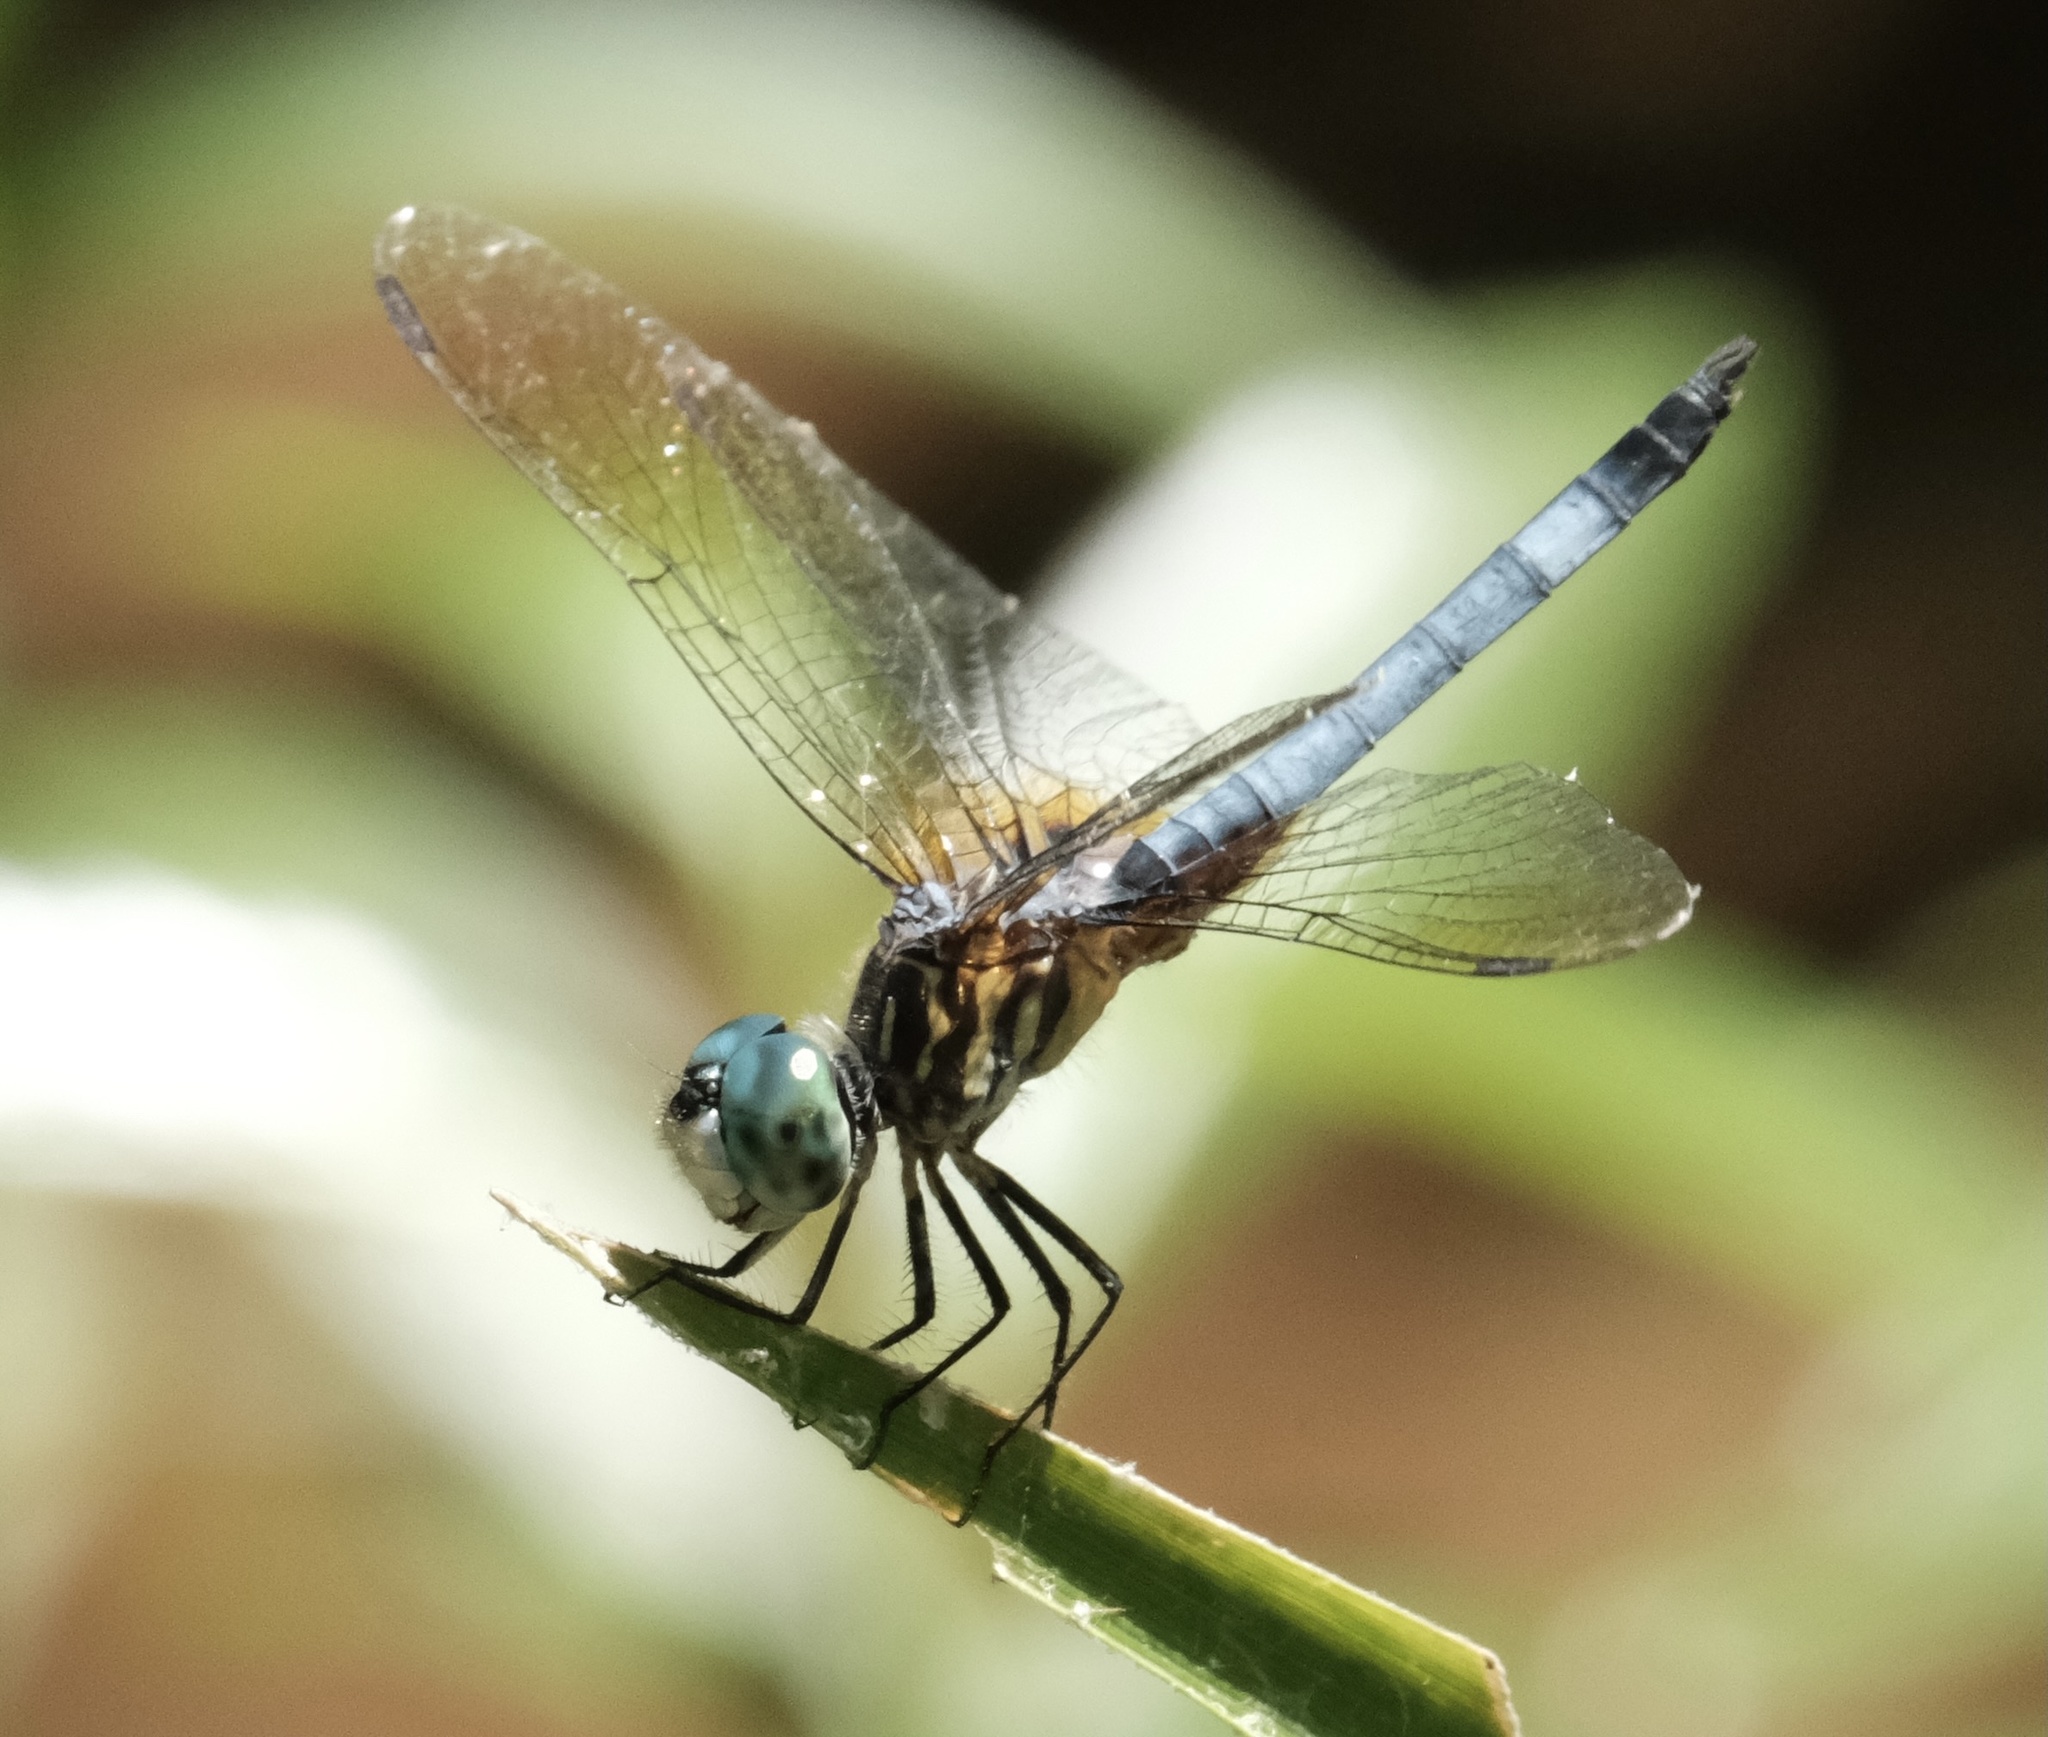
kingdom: Animalia
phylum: Arthropoda
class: Insecta
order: Odonata
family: Libellulidae
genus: Pachydiplax
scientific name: Pachydiplax longipennis
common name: Blue dasher
